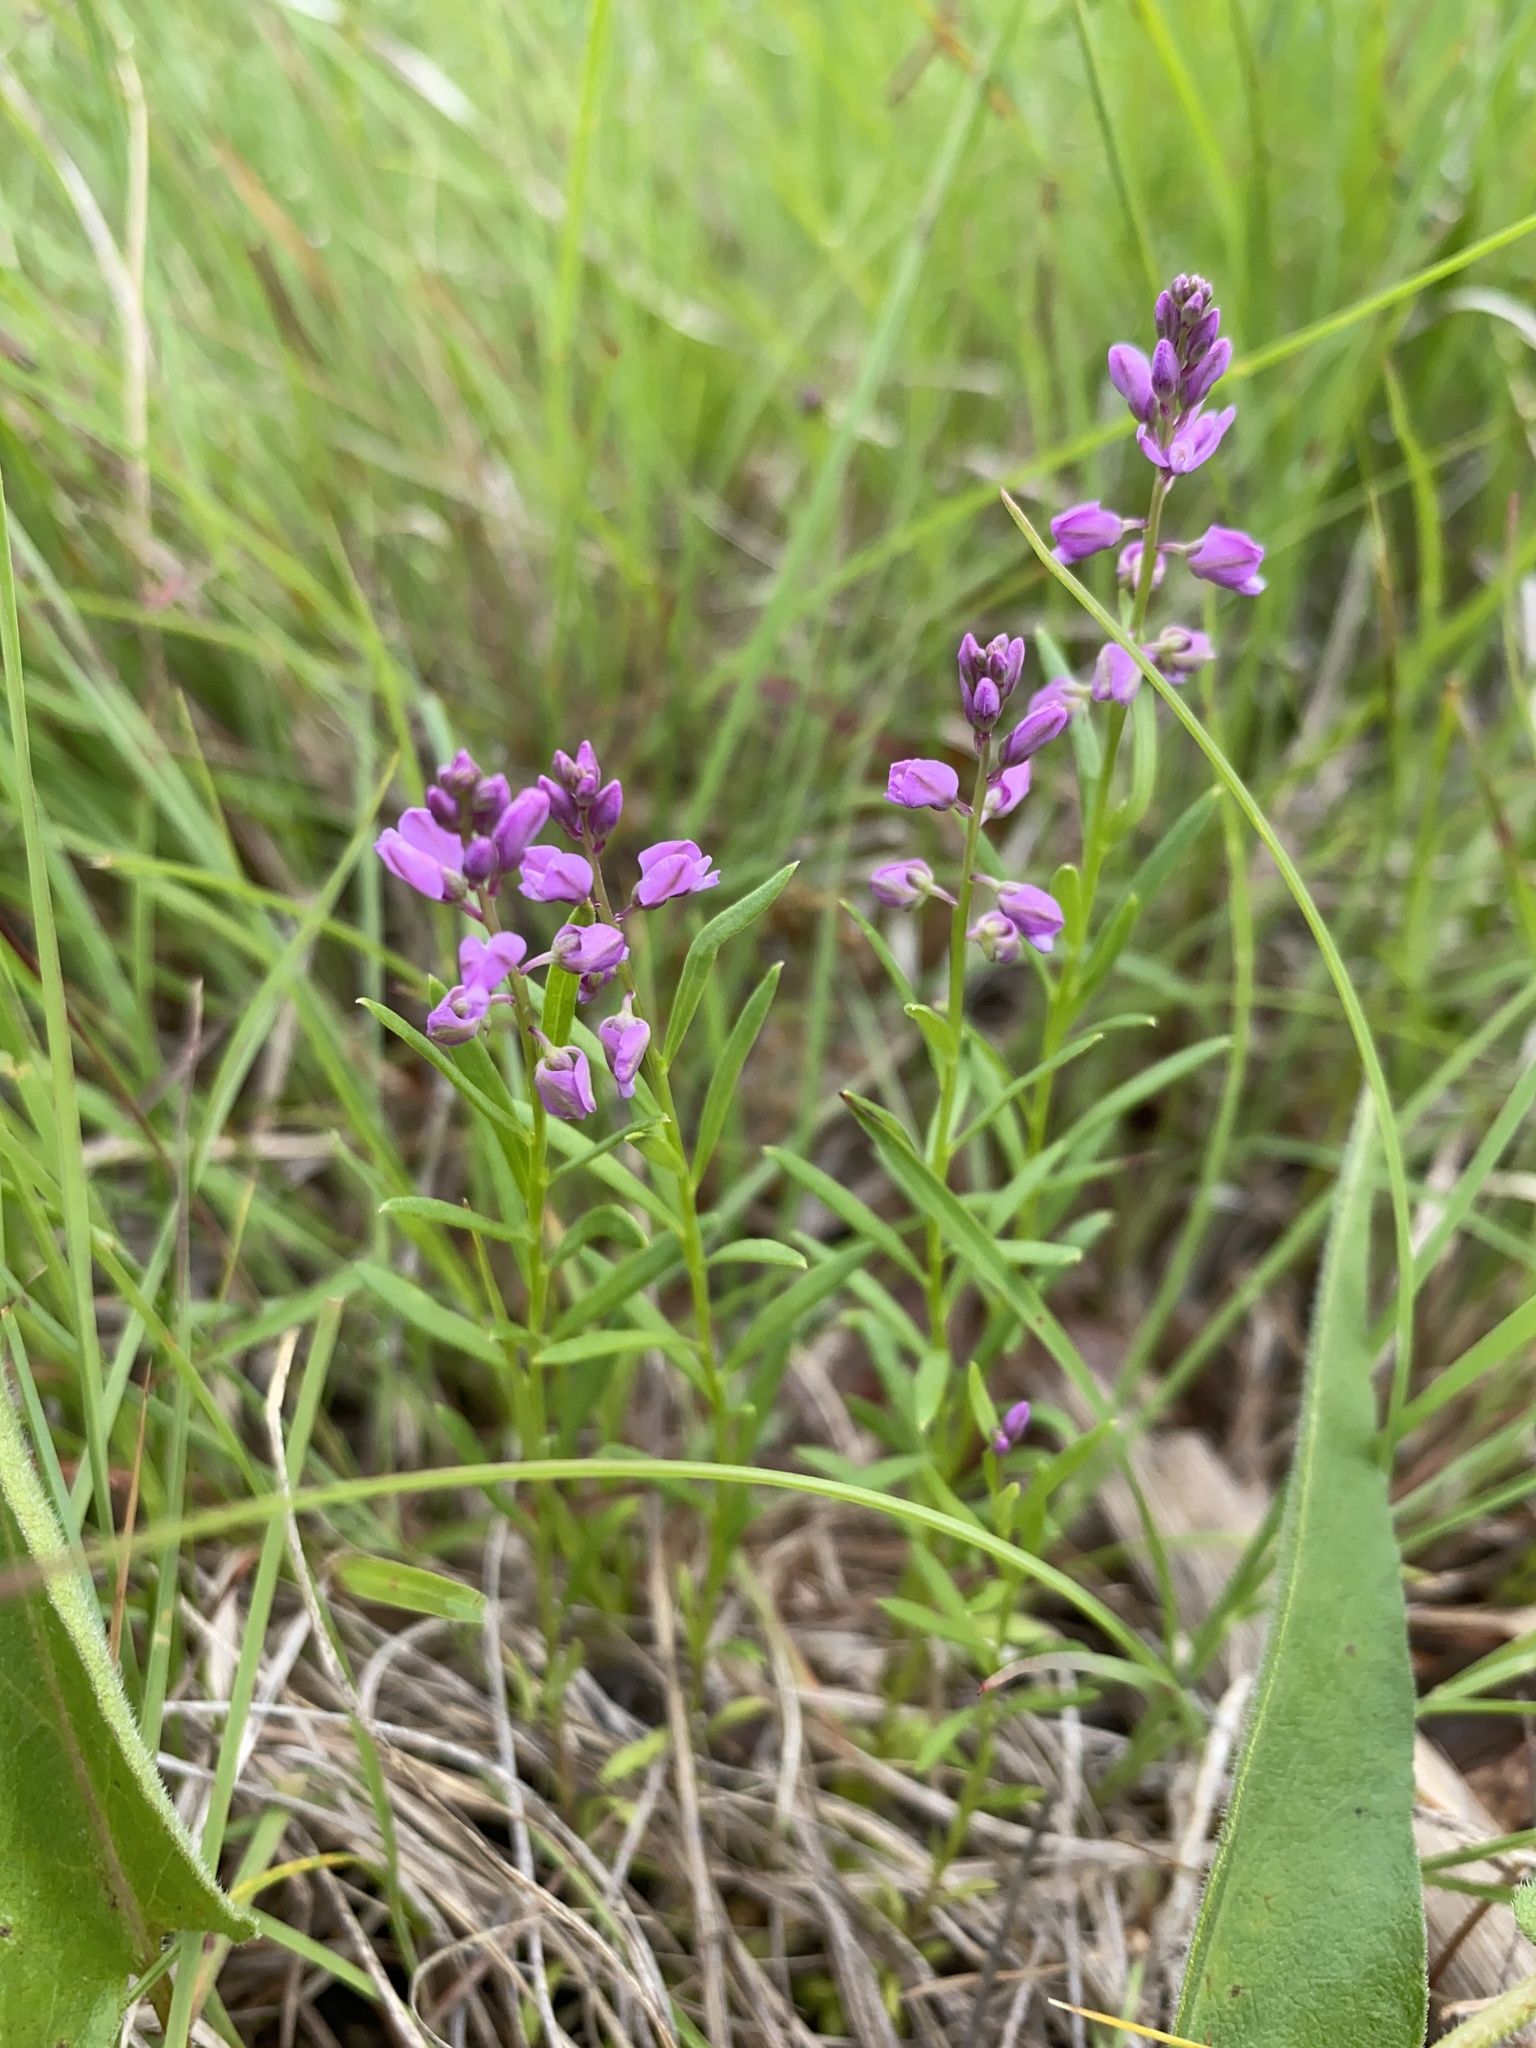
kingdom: Plantae
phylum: Tracheophyta
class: Magnoliopsida
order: Fabales
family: Polygalaceae
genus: Polygala
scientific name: Polygala polygama
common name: Bitter milkwort
